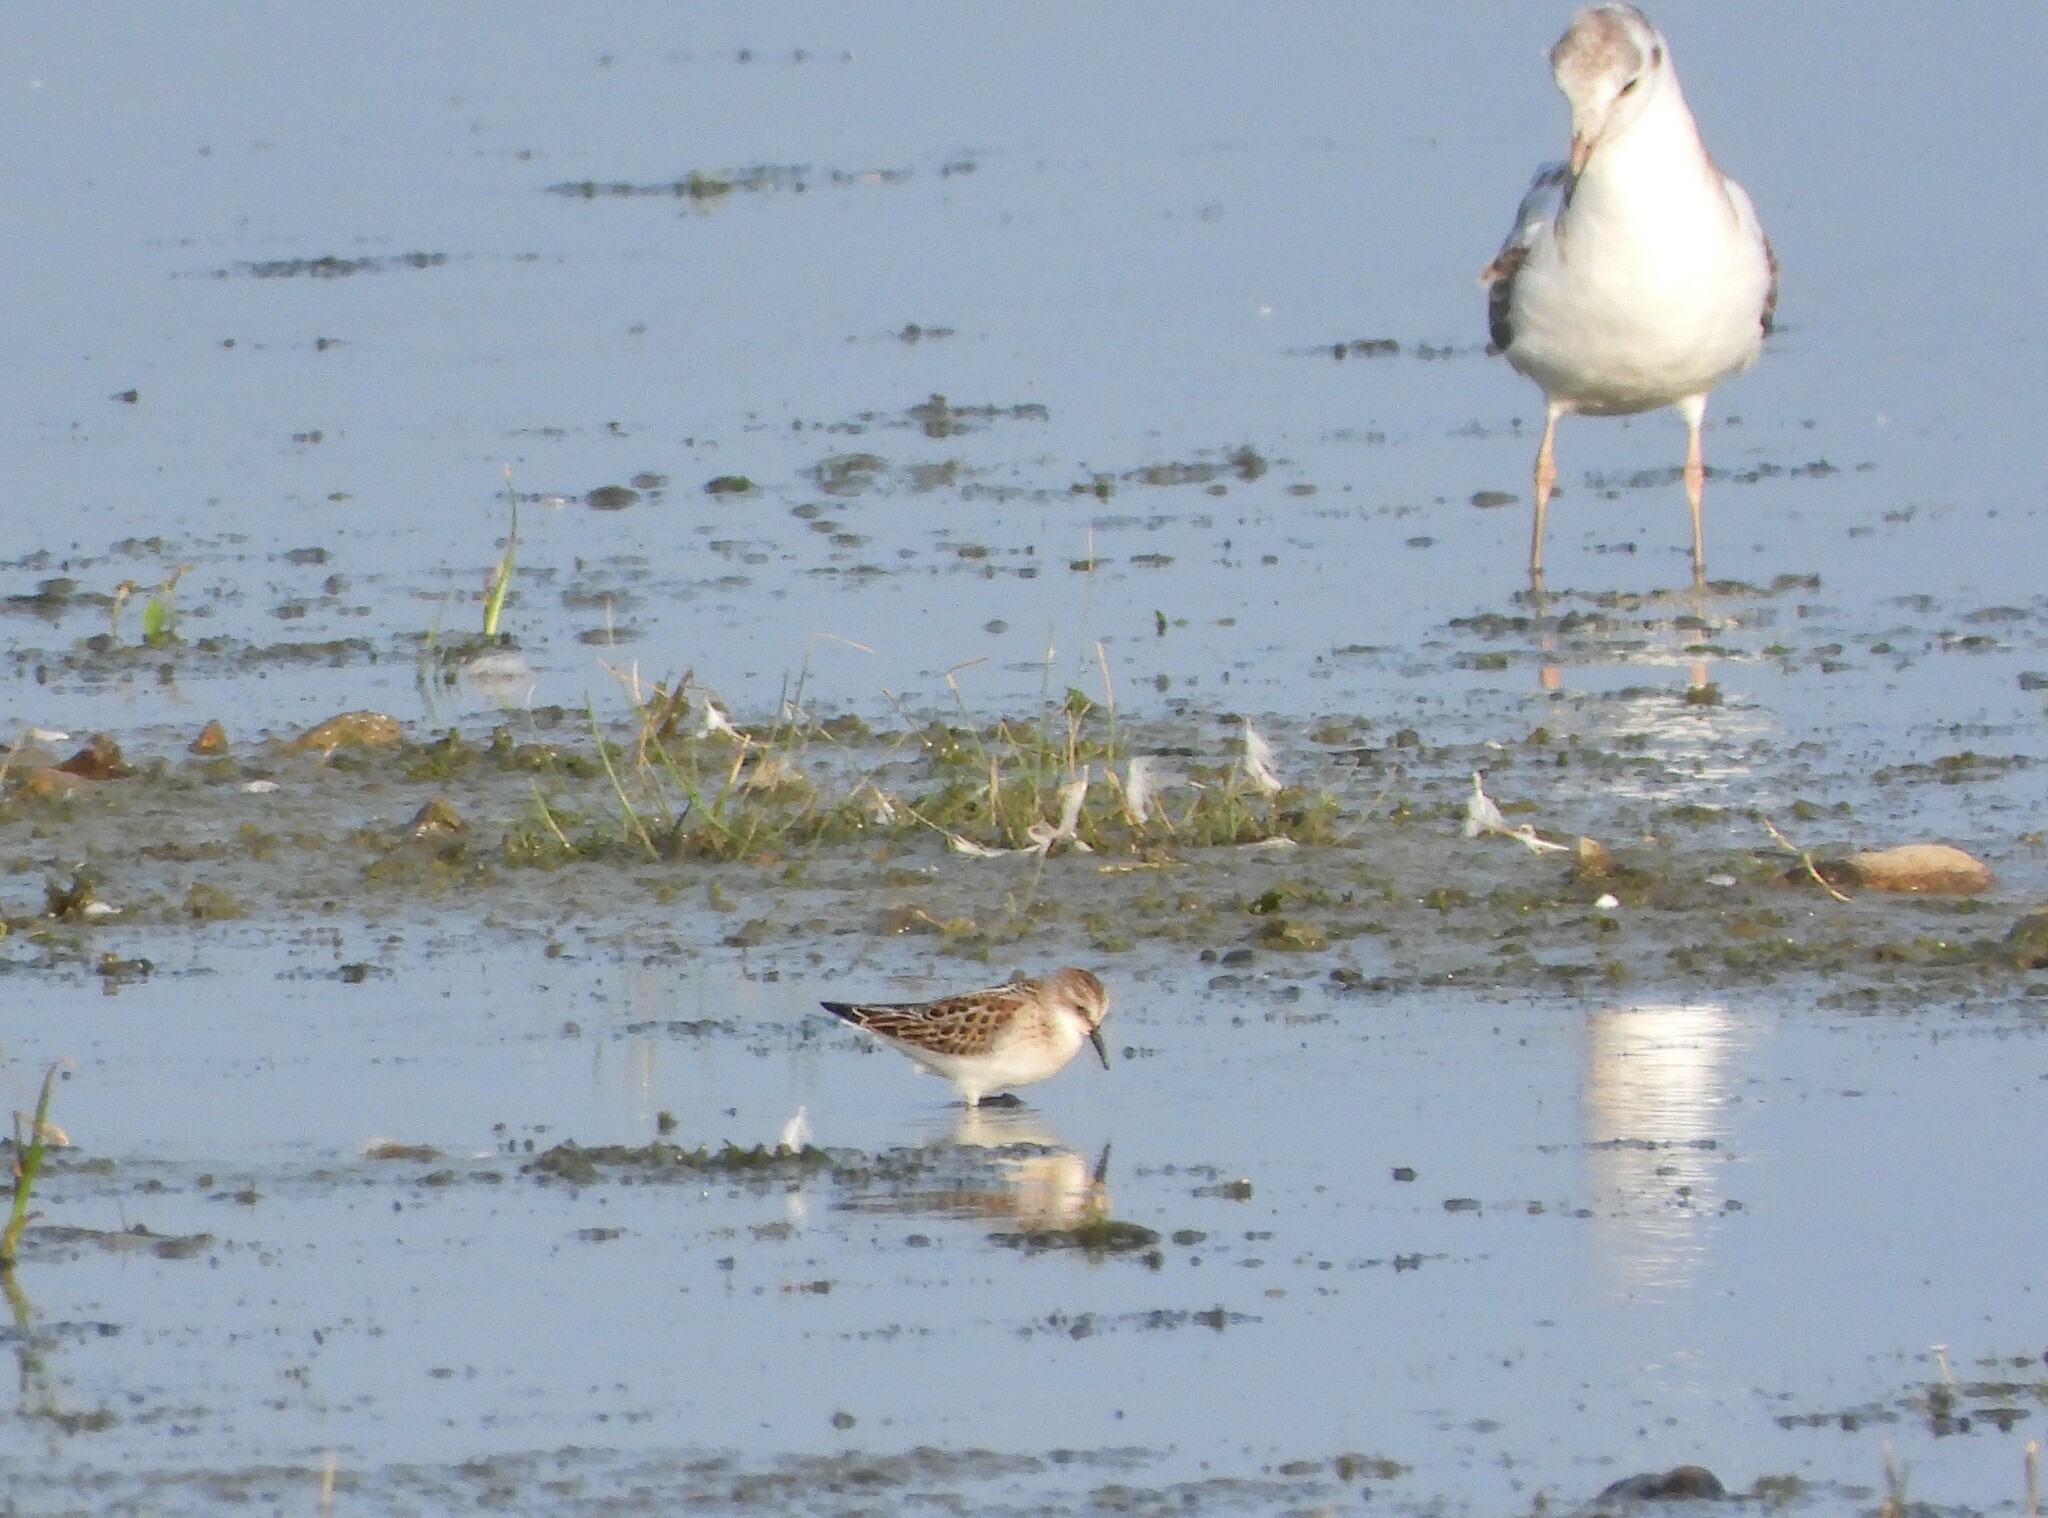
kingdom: Animalia
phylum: Chordata
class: Aves
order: Charadriiformes
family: Scolopacidae
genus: Calidris
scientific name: Calidris minuta
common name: Little stint
